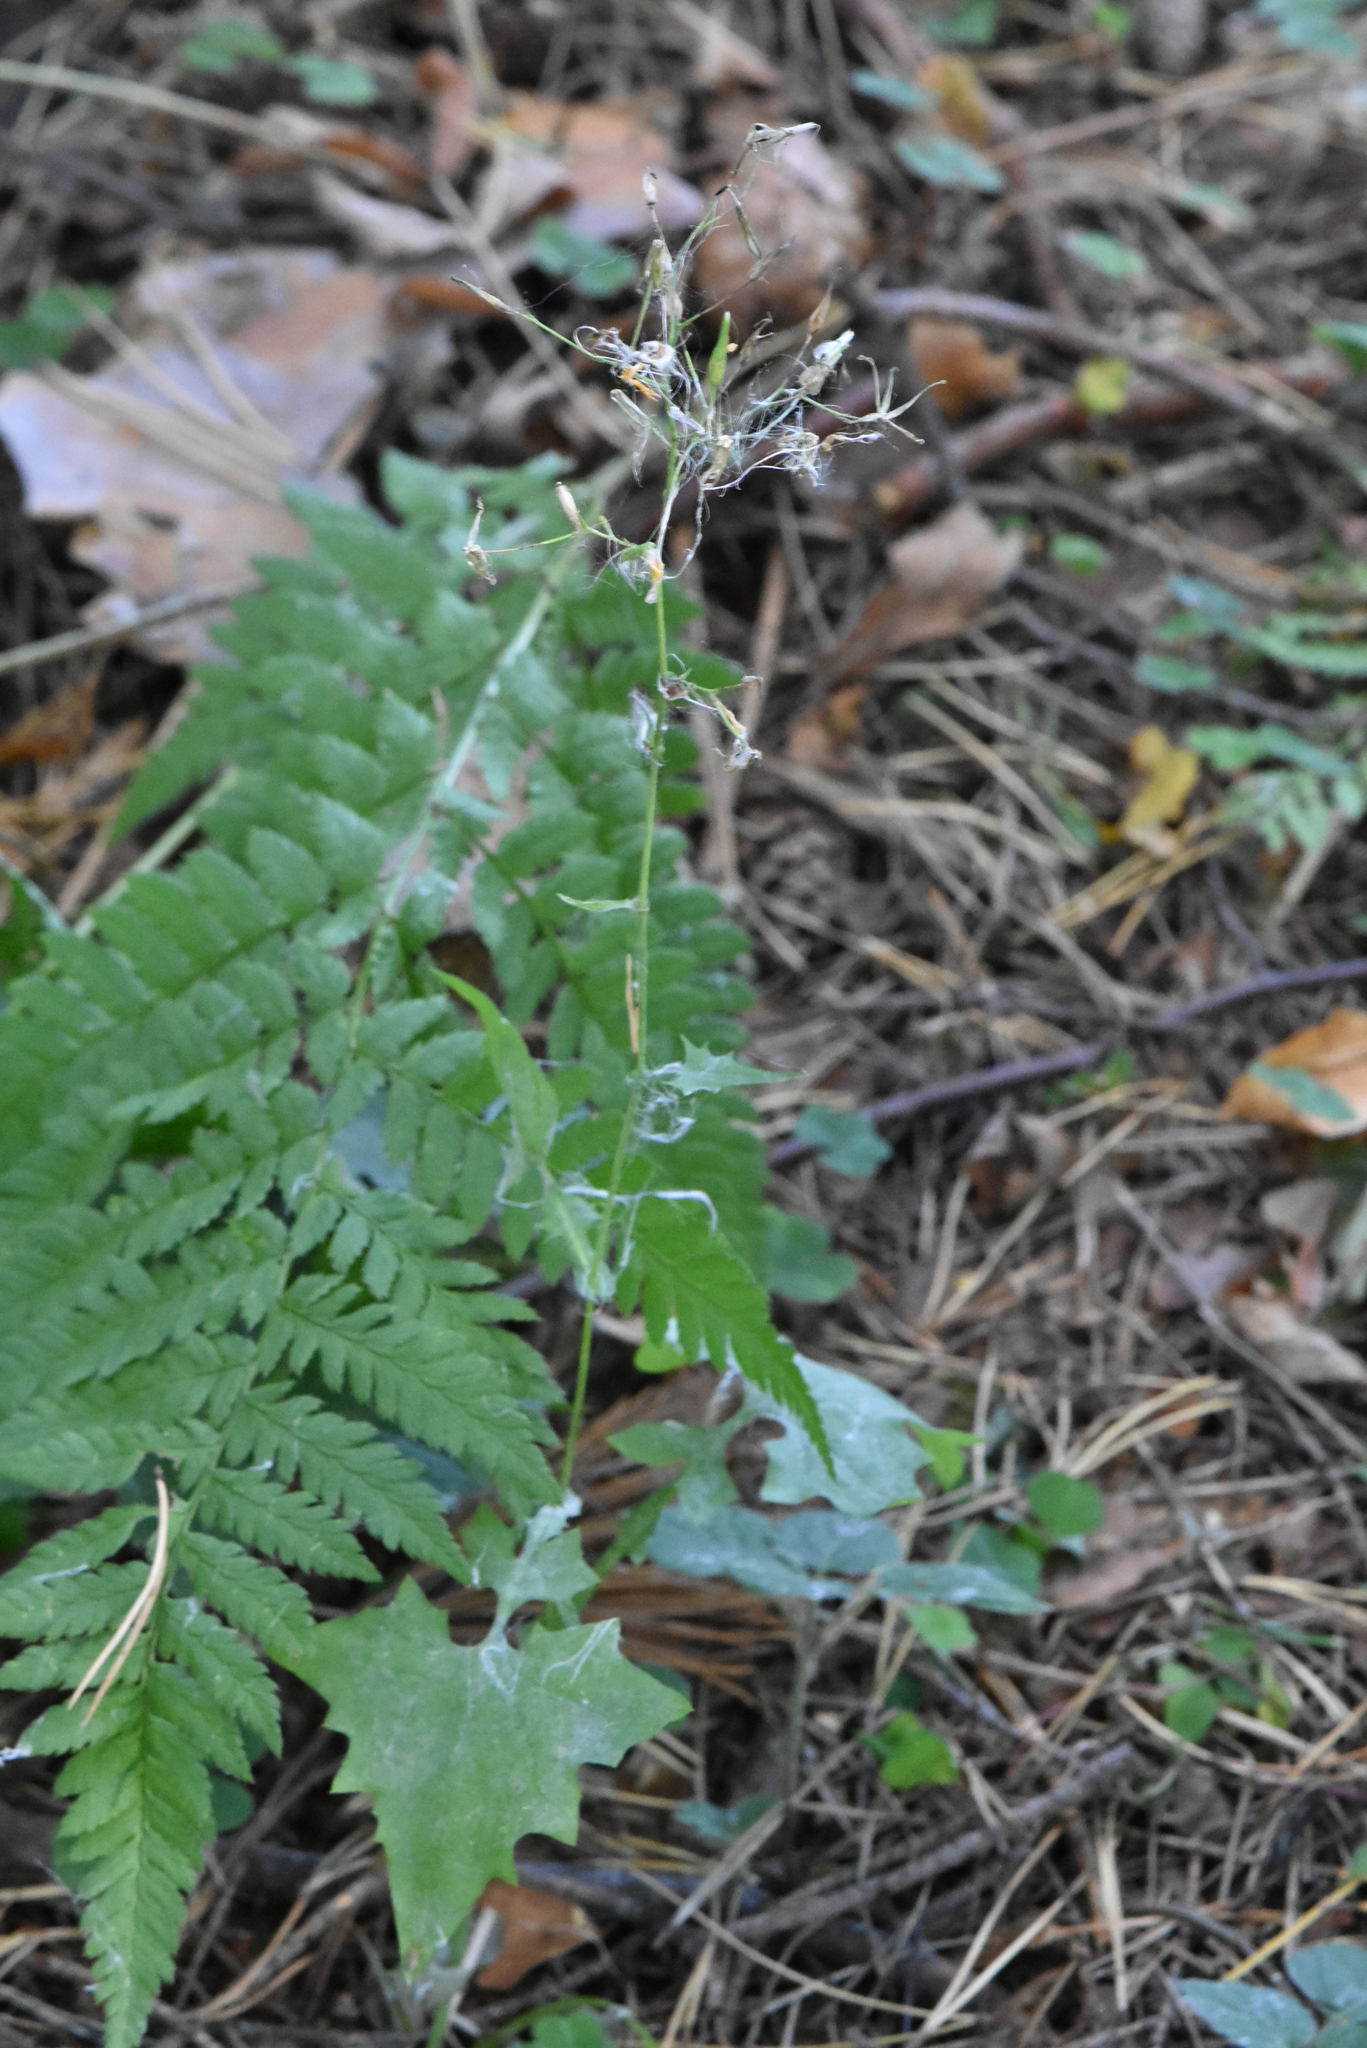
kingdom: Plantae
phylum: Tracheophyta
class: Magnoliopsida
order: Asterales
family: Asteraceae
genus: Mycelis
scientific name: Mycelis muralis
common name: Wall lettuce
